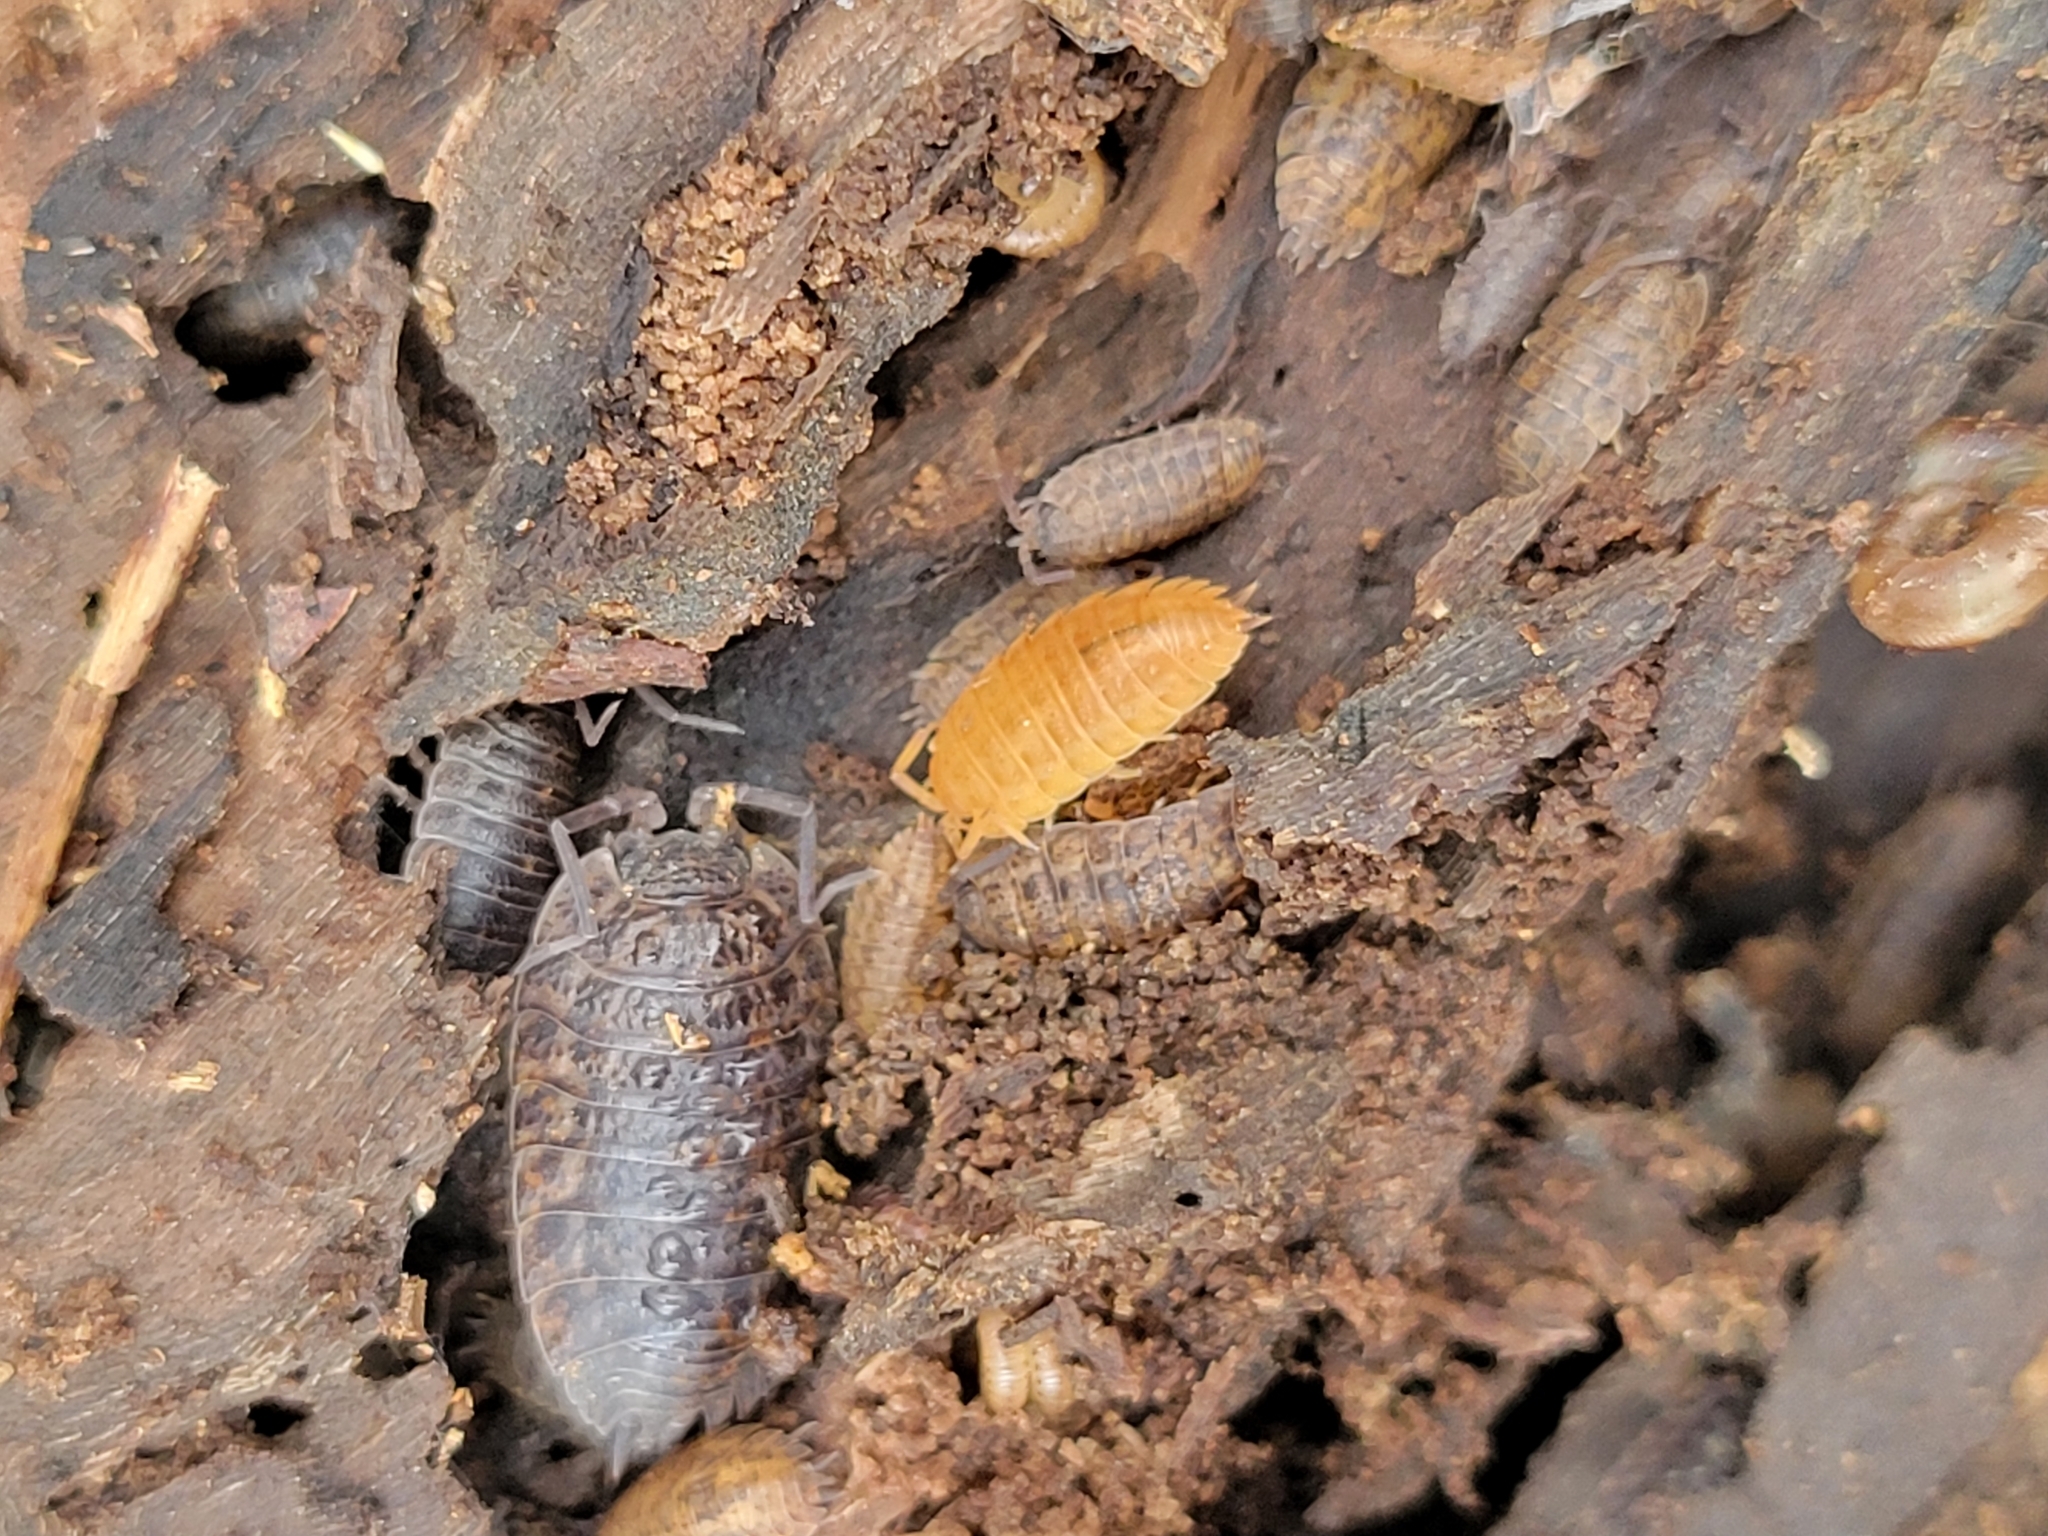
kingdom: Animalia
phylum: Arthropoda
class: Malacostraca
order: Isopoda
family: Trachelipodidae
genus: Trachelipus
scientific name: Trachelipus rathkii
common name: Isopod
